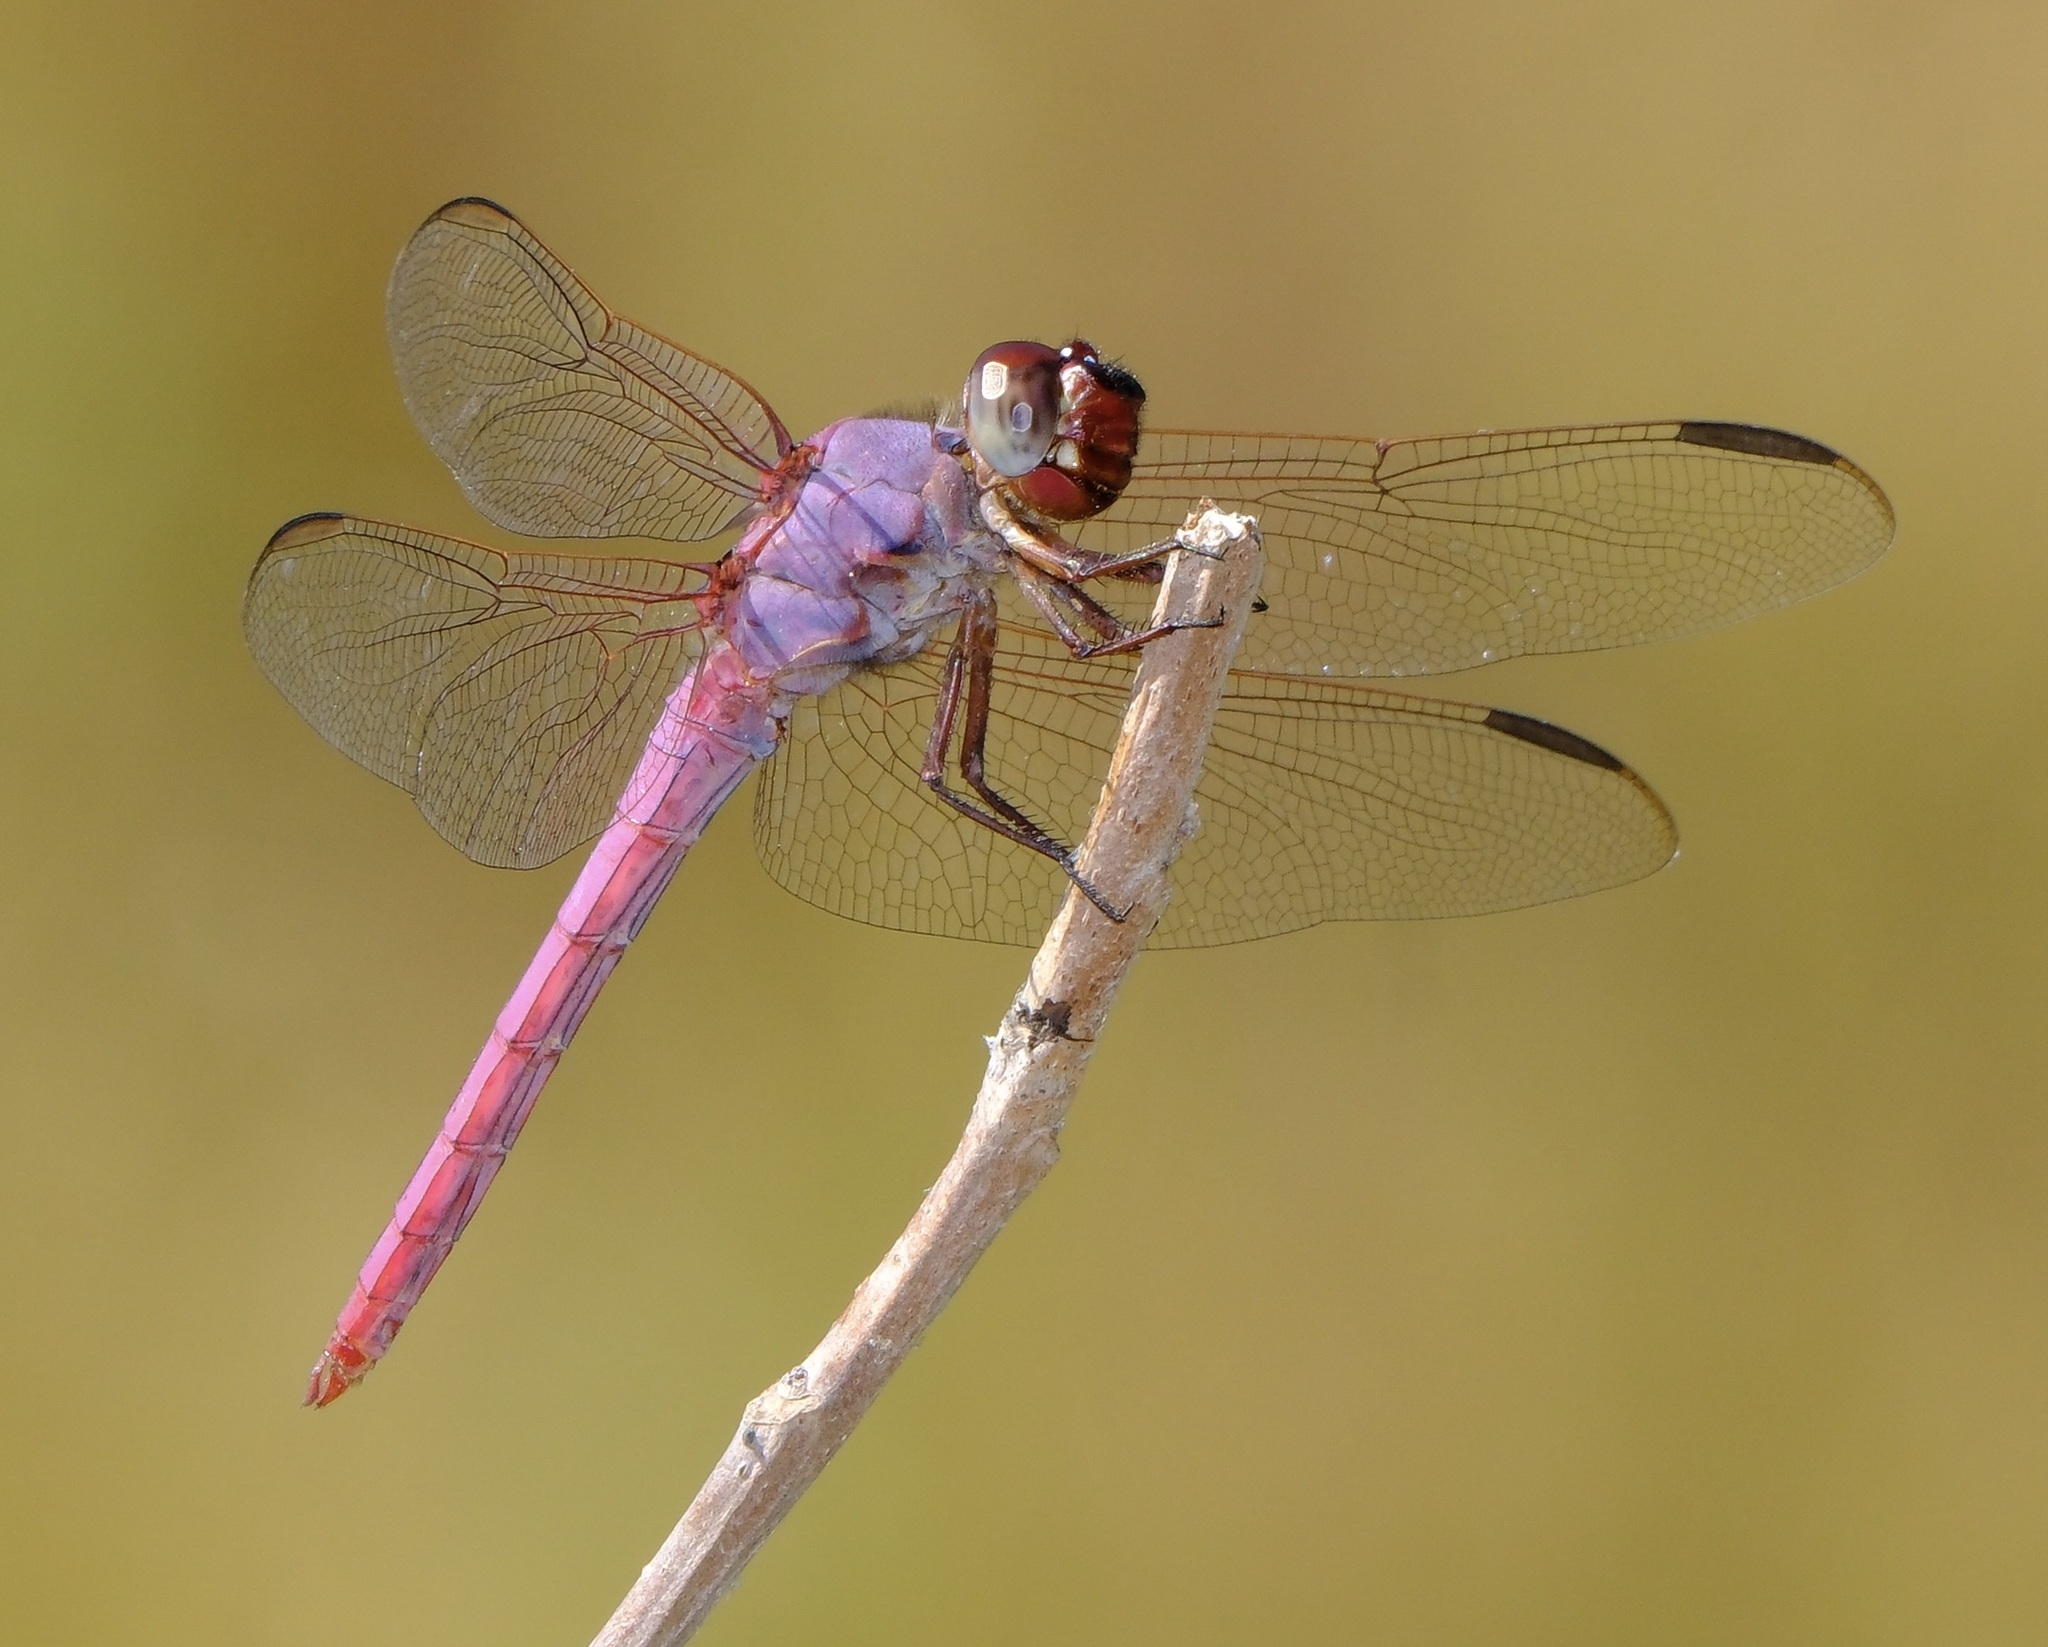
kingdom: Animalia
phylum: Arthropoda
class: Insecta
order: Odonata
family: Libellulidae
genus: Orthemis
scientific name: Orthemis ferruginea
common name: Roseate skimmer
